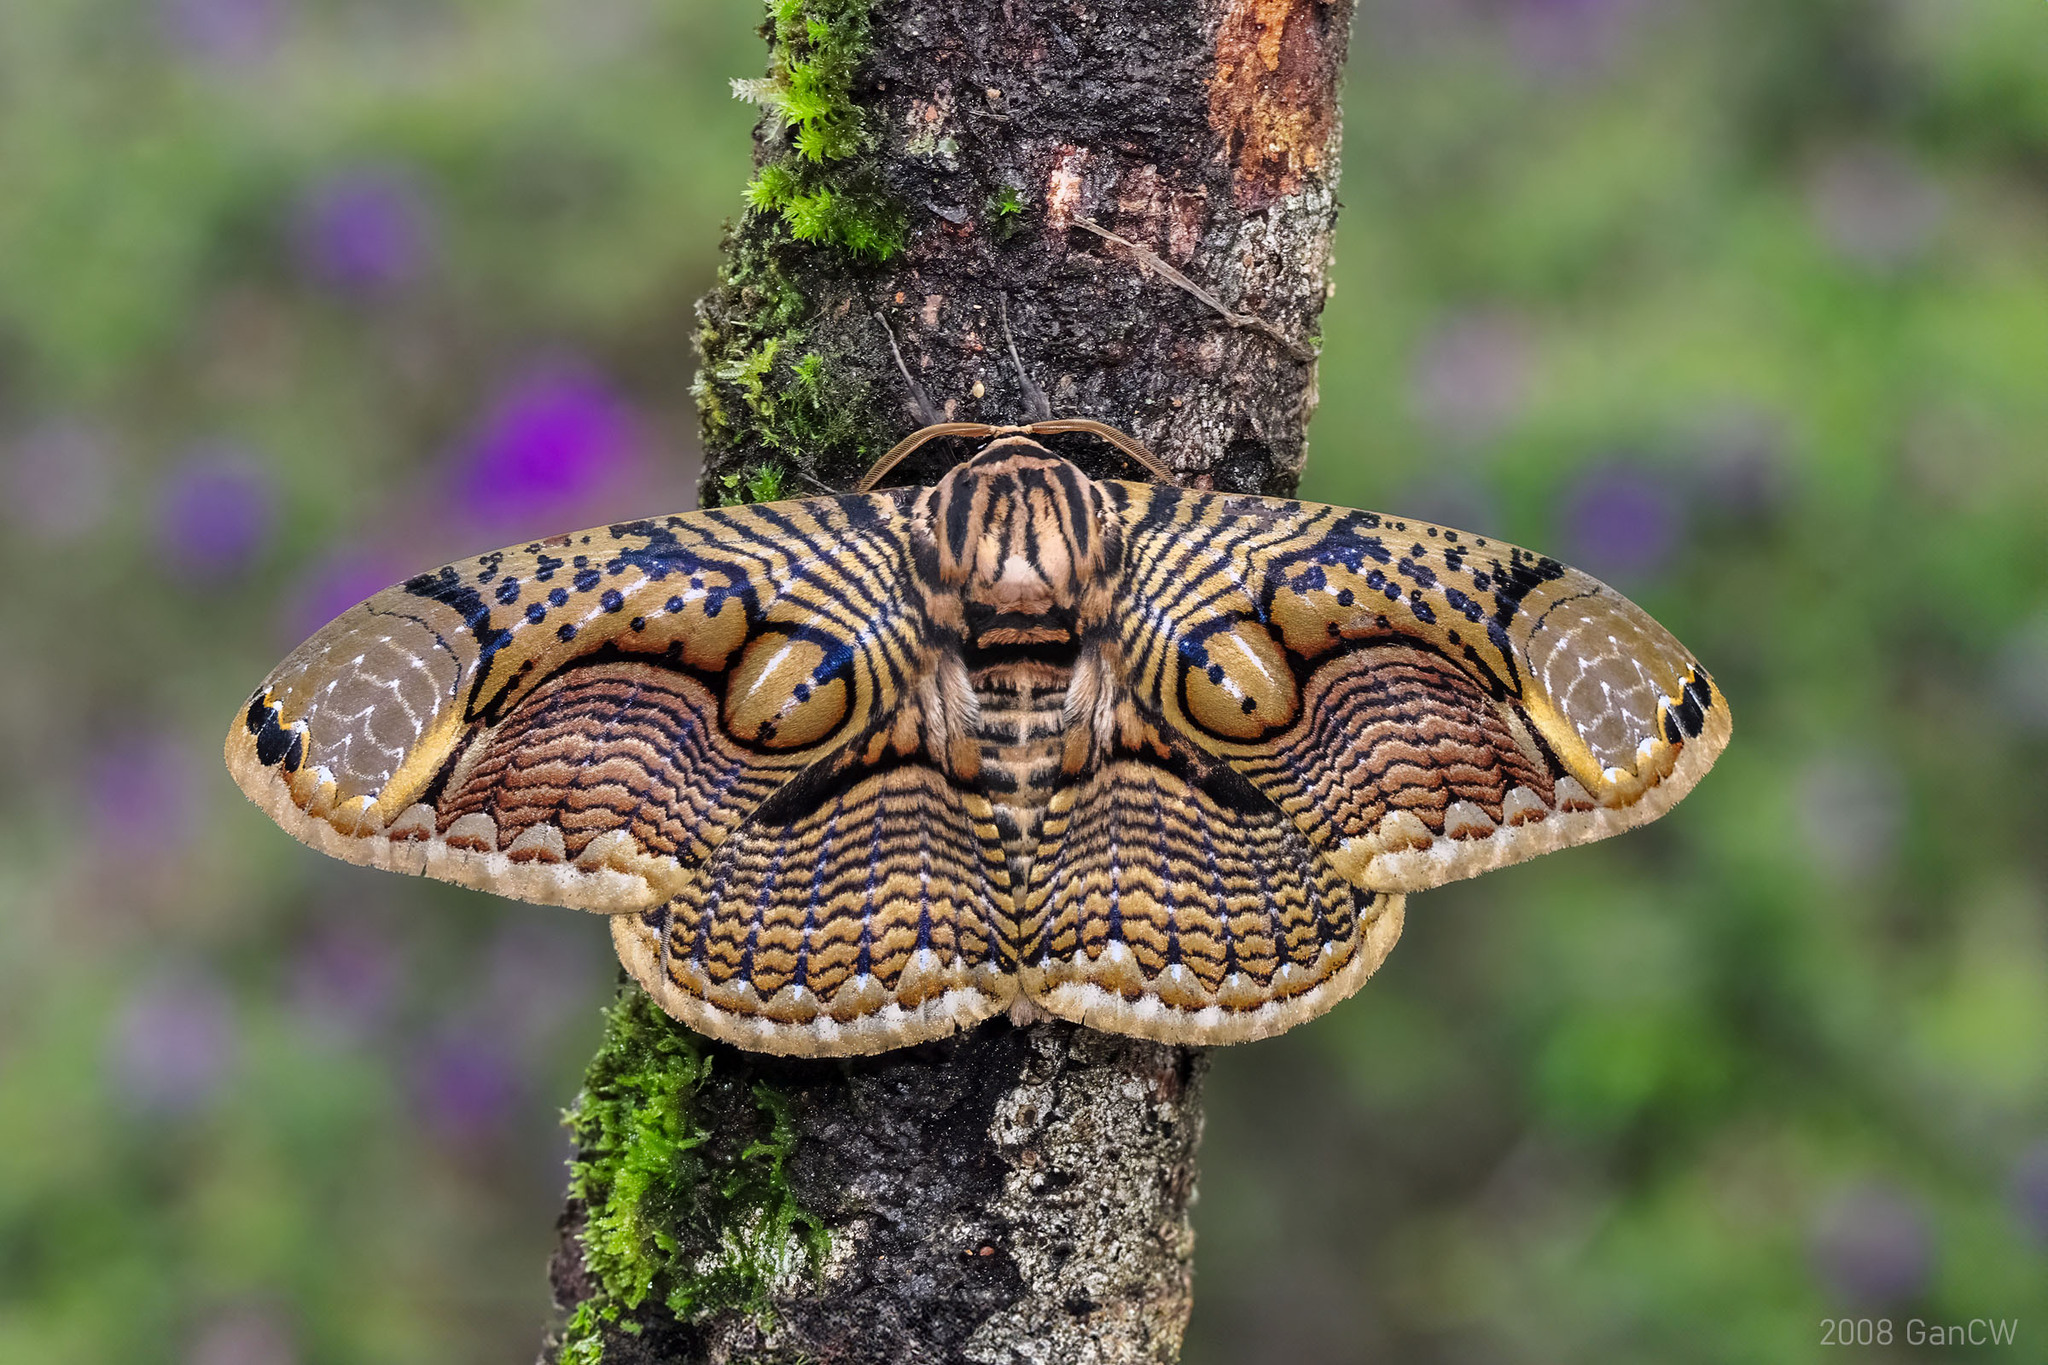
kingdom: Animalia
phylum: Arthropoda
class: Insecta
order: Lepidoptera
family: Brahmaeidae
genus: Brahmaea
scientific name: Brahmaea hearseyi
